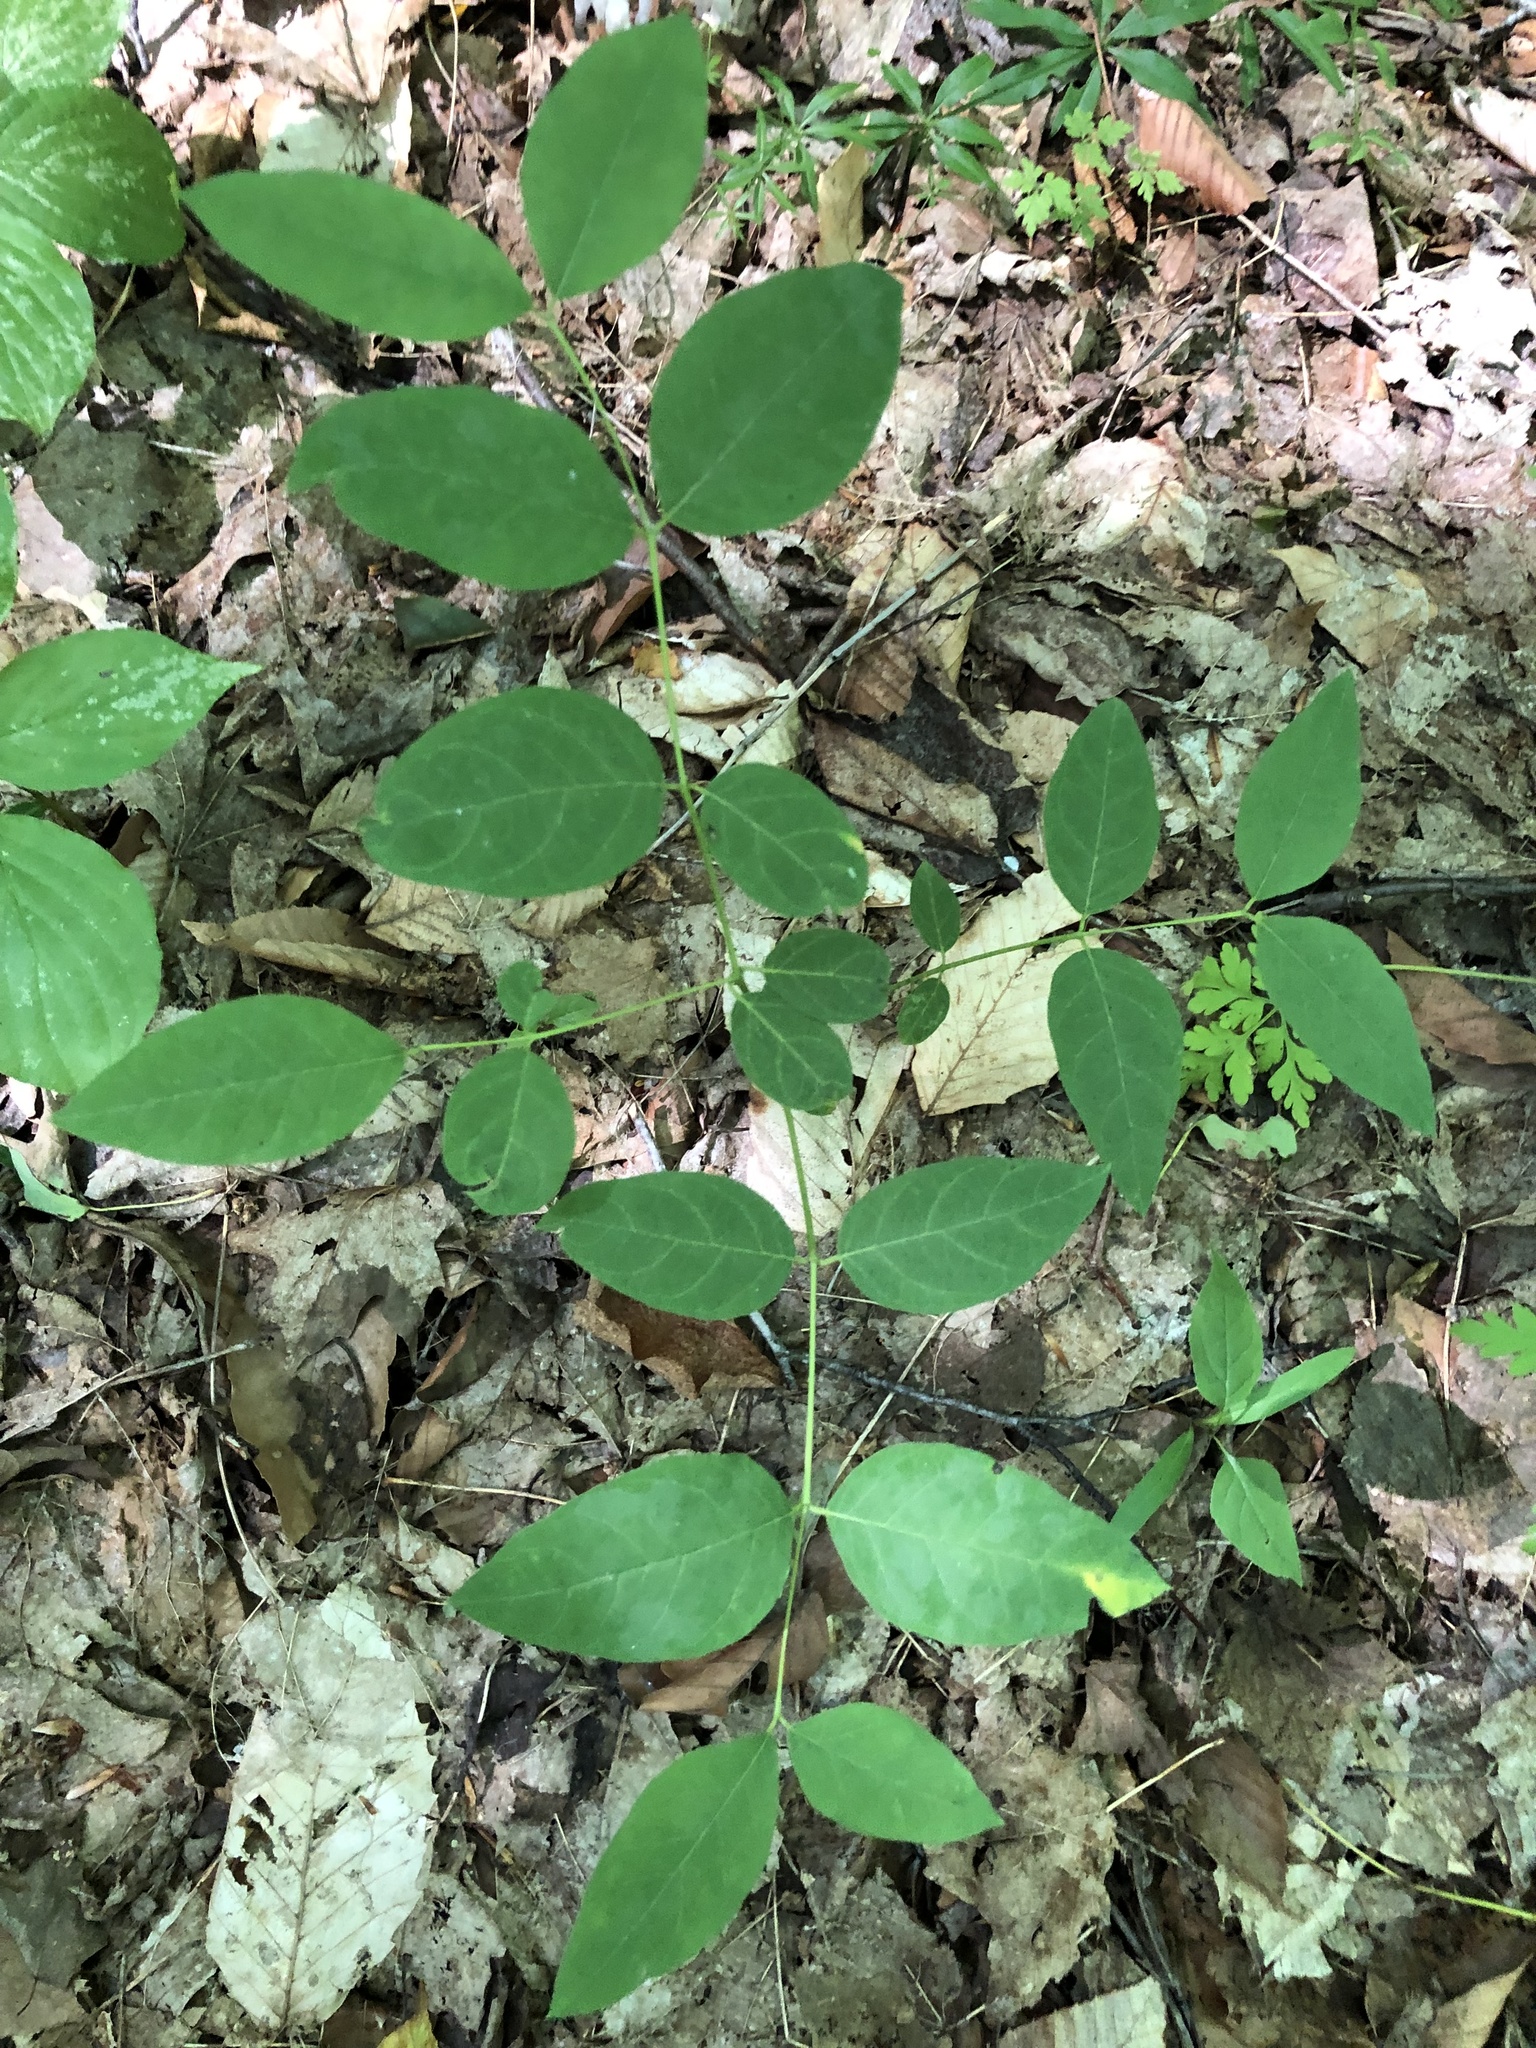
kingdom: Plantae
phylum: Tracheophyta
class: Magnoliopsida
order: Gentianales
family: Apocynaceae
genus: Apocynum
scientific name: Apocynum androsaemifolium
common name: Spreading dogbane
